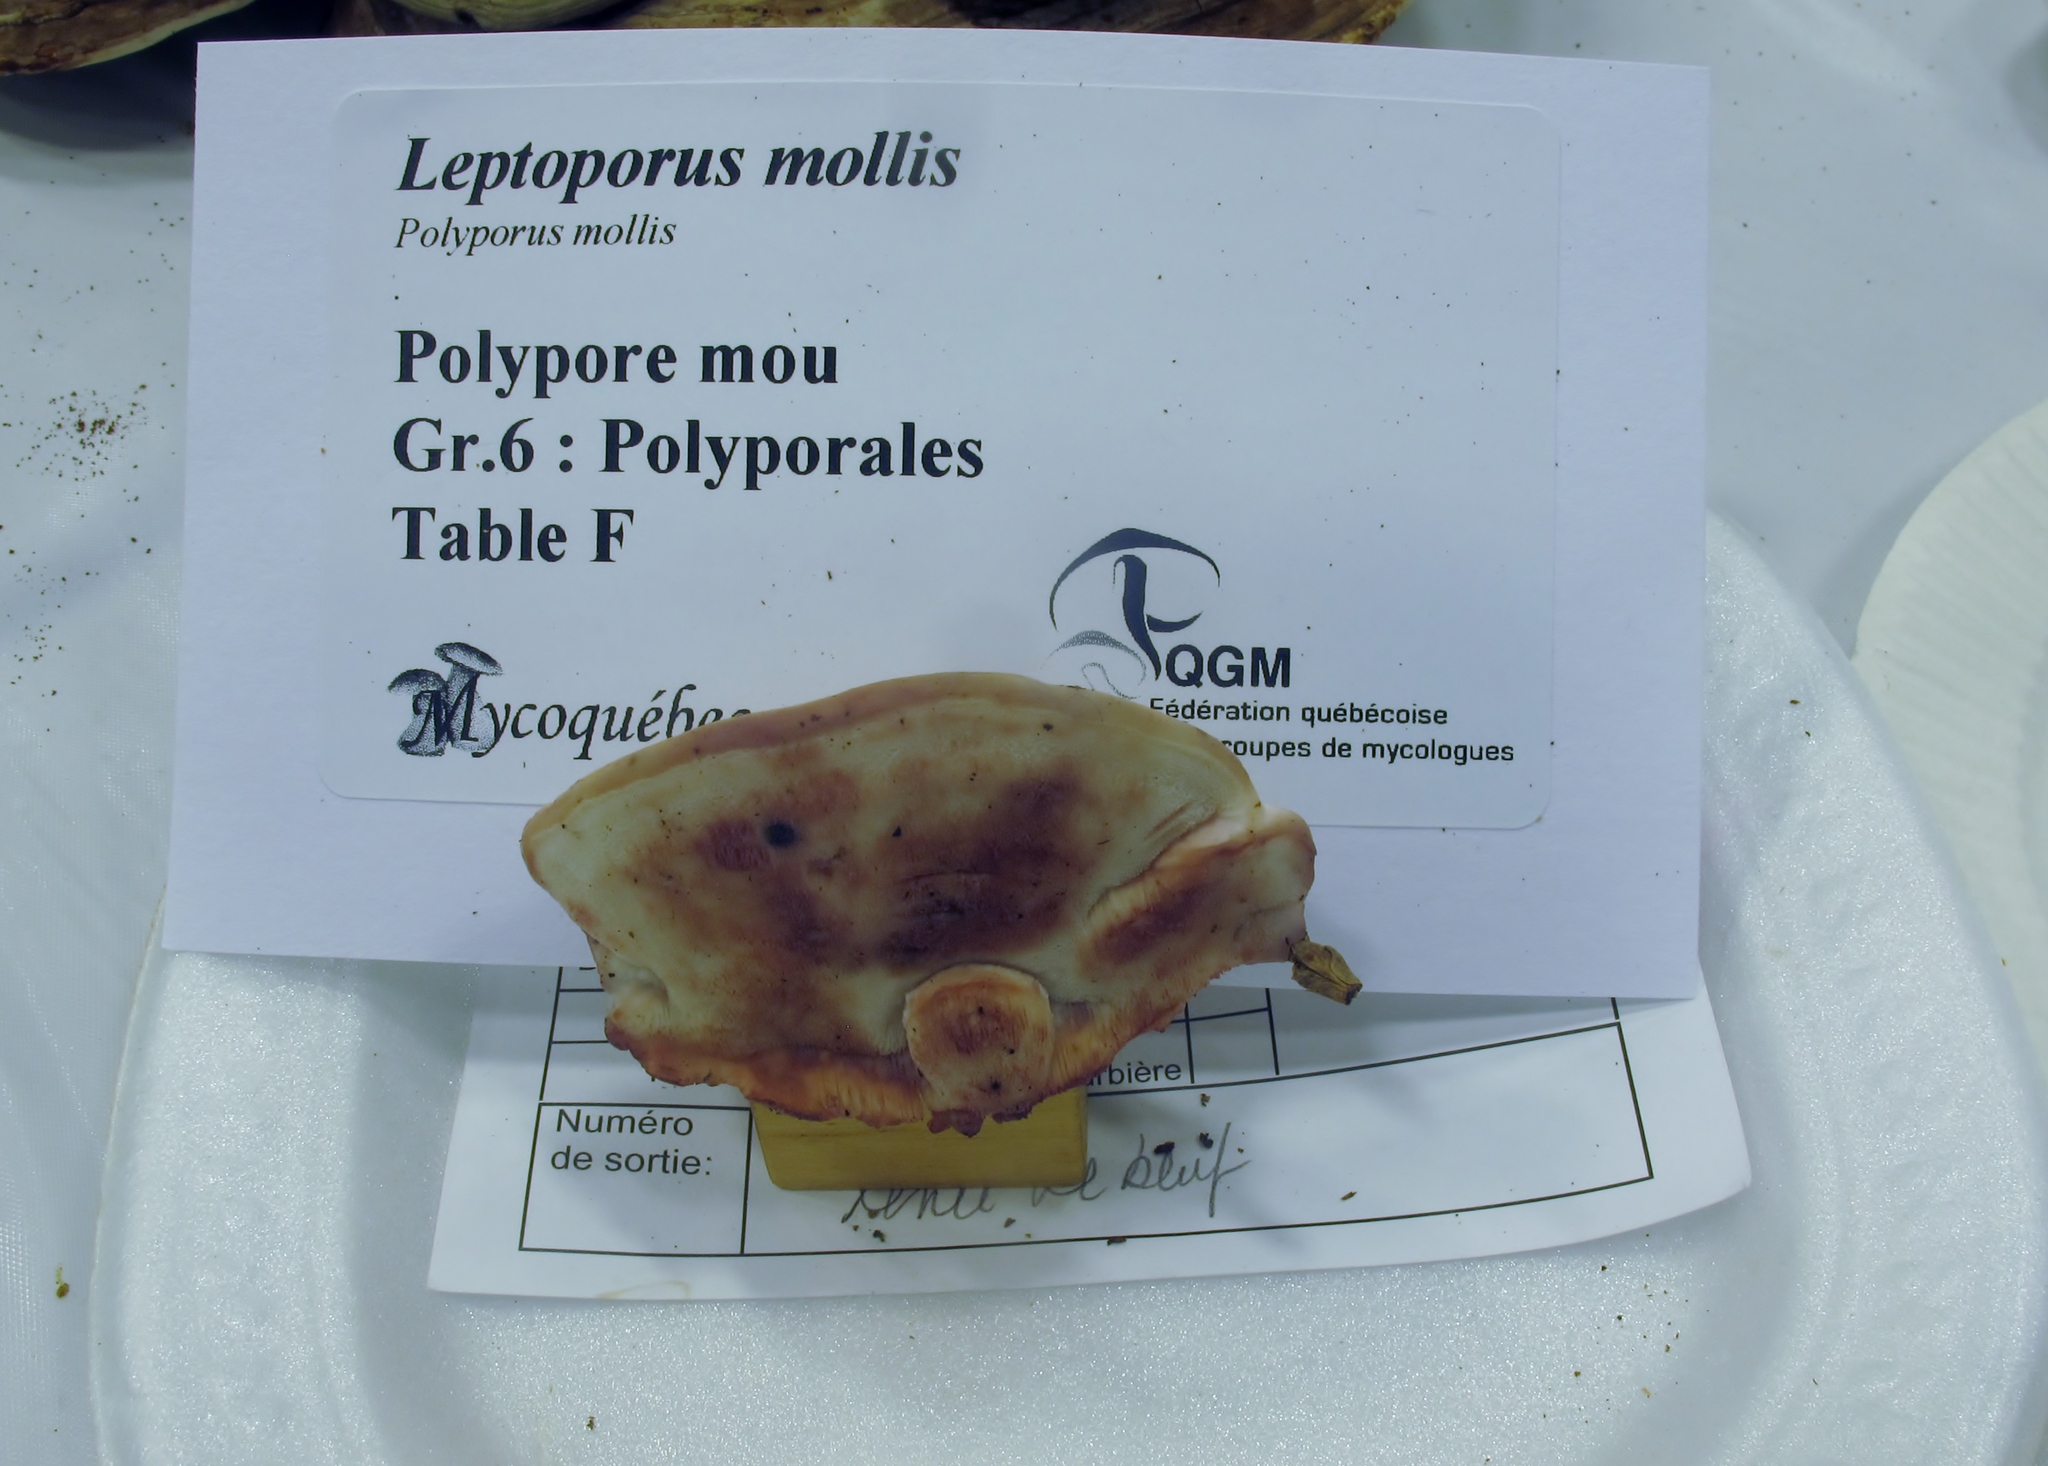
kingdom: Fungi
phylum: Basidiomycota
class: Agaricomycetes
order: Polyporales
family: Irpicaceae
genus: Leptoporus
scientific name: Leptoporus mollis
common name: Soft bracket
